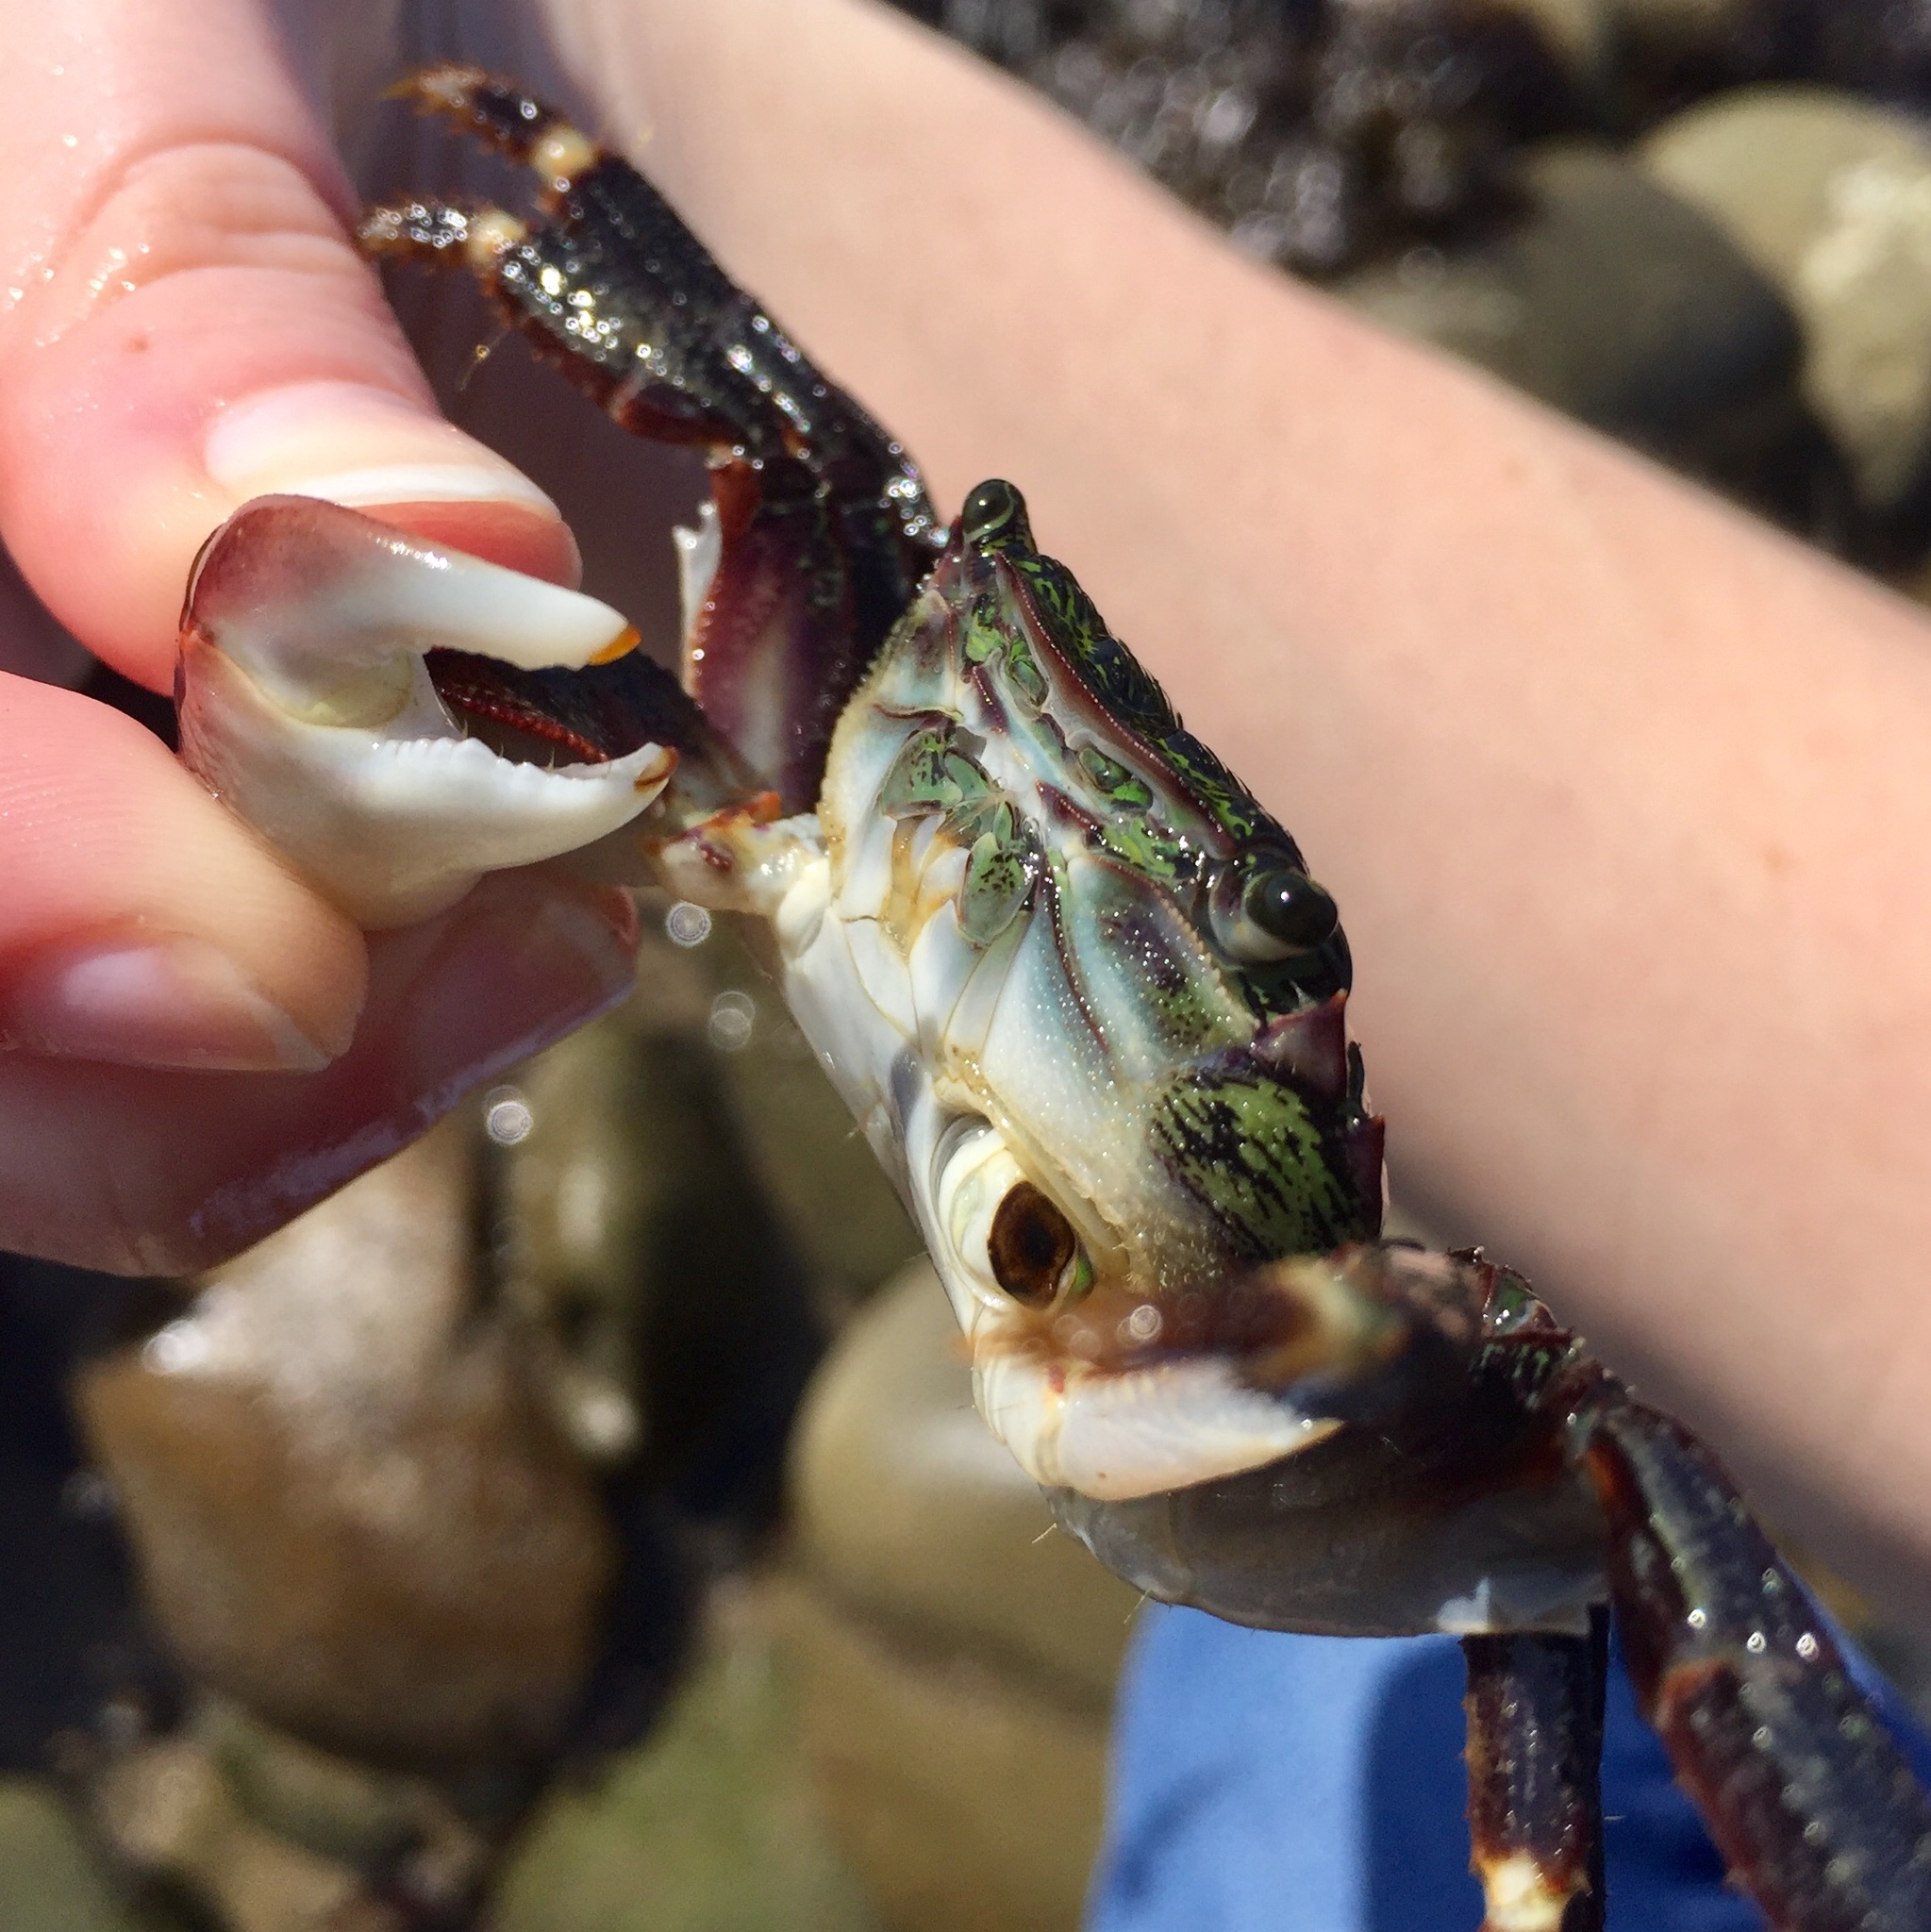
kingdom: Animalia
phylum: Arthropoda
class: Malacostraca
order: Decapoda
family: Grapsidae
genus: Pachygrapsus
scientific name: Pachygrapsus crassipes
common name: Striped shore crab
